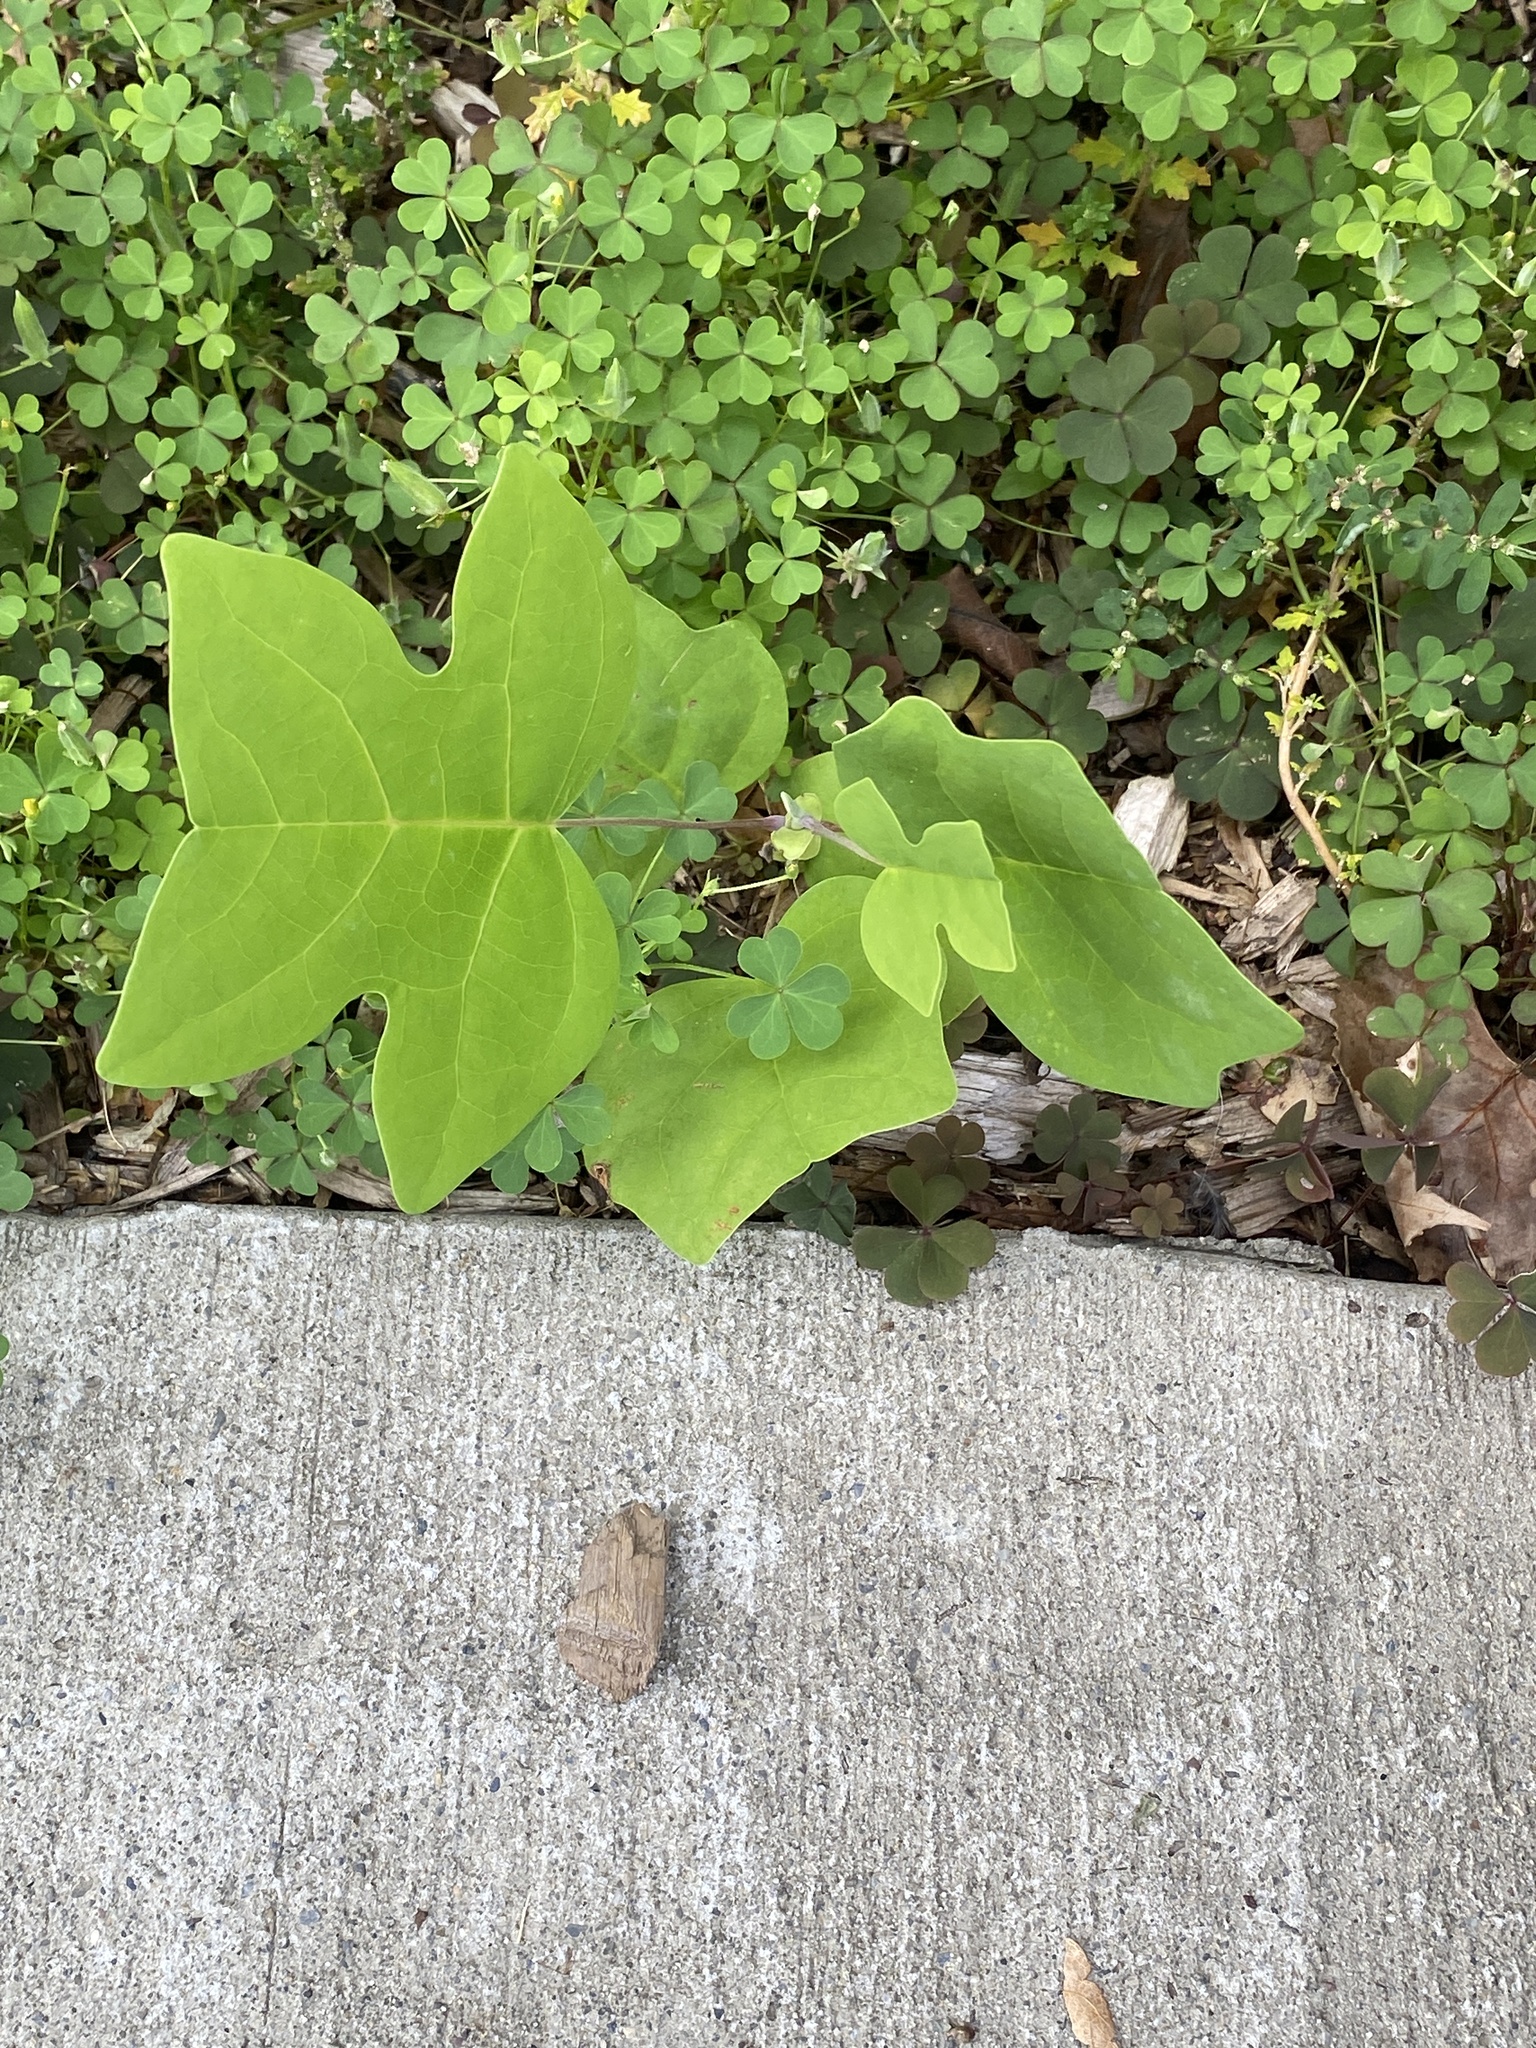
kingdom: Plantae
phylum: Tracheophyta
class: Magnoliopsida
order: Magnoliales
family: Magnoliaceae
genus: Liriodendron
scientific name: Liriodendron tulipifera
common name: Tulip tree
